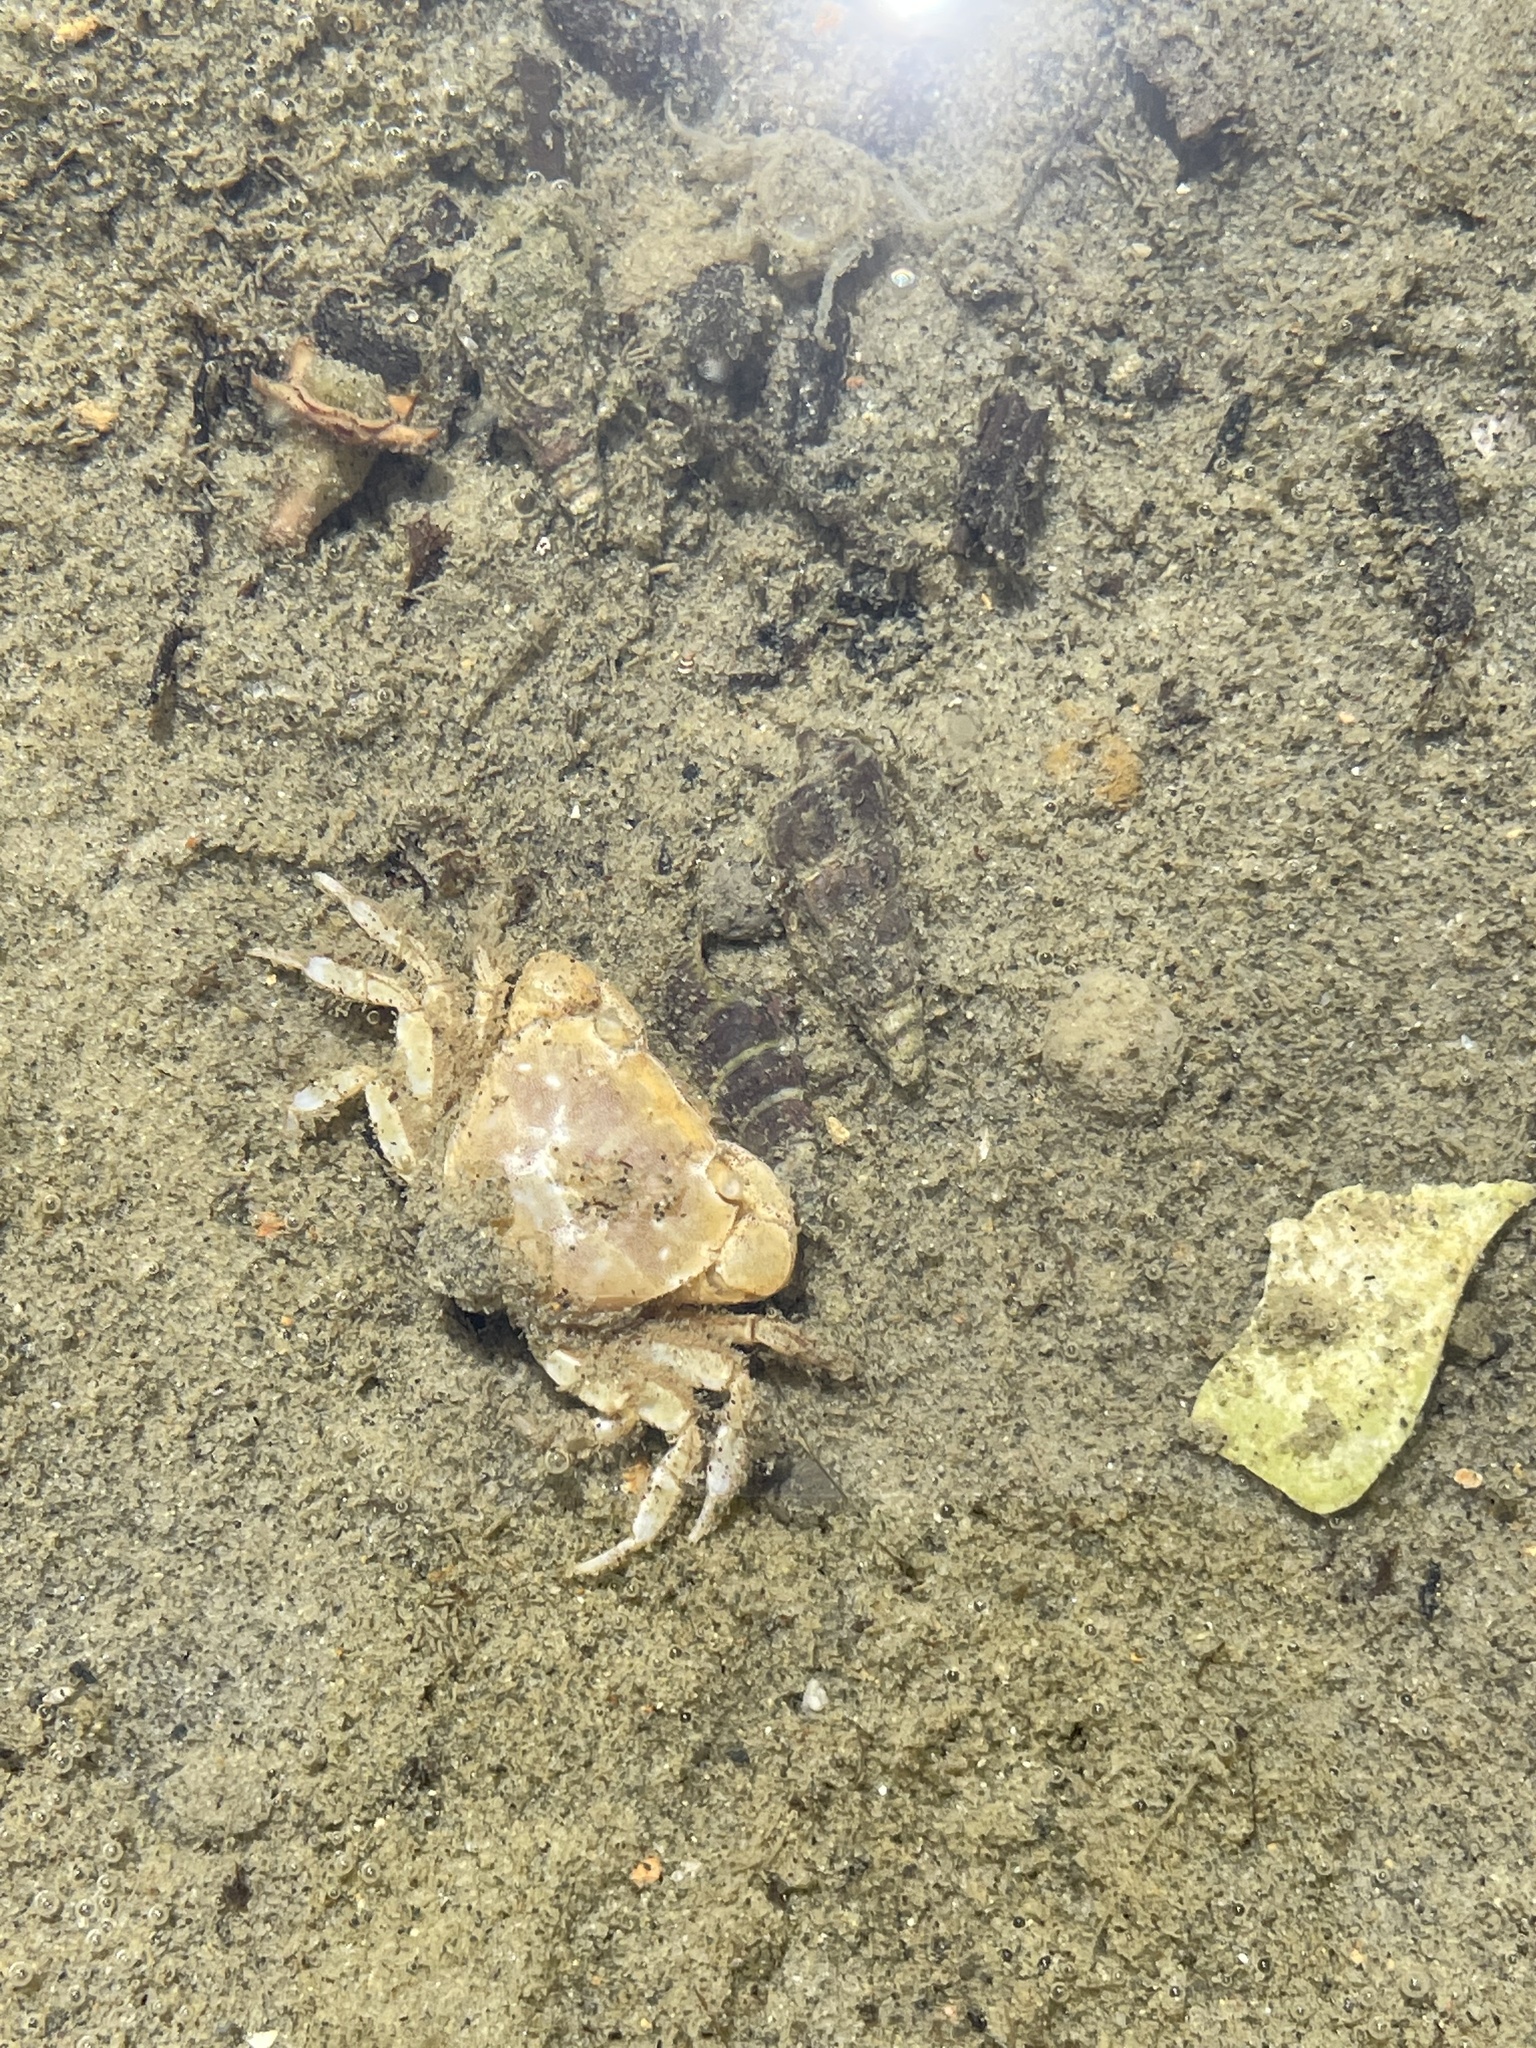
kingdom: Animalia
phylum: Arthropoda
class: Malacostraca
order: Decapoda
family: Varunidae
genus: Hemigrapsus
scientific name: Hemigrapsus crenulatus
